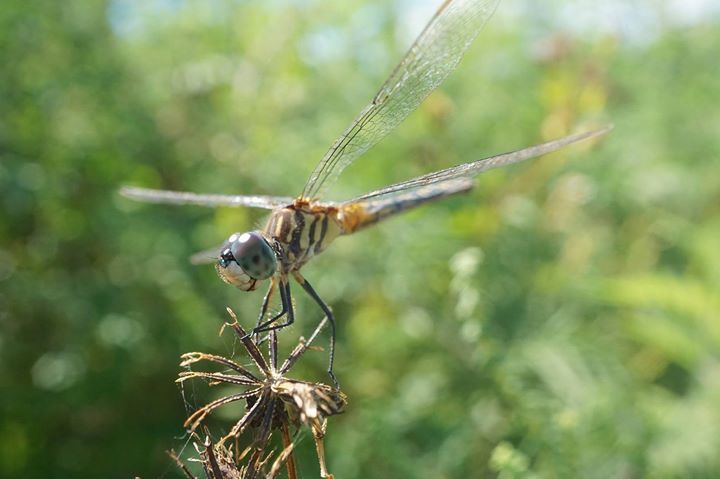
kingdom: Animalia
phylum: Arthropoda
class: Insecta
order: Odonata
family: Libellulidae
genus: Pachydiplax
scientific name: Pachydiplax longipennis
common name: Blue dasher
